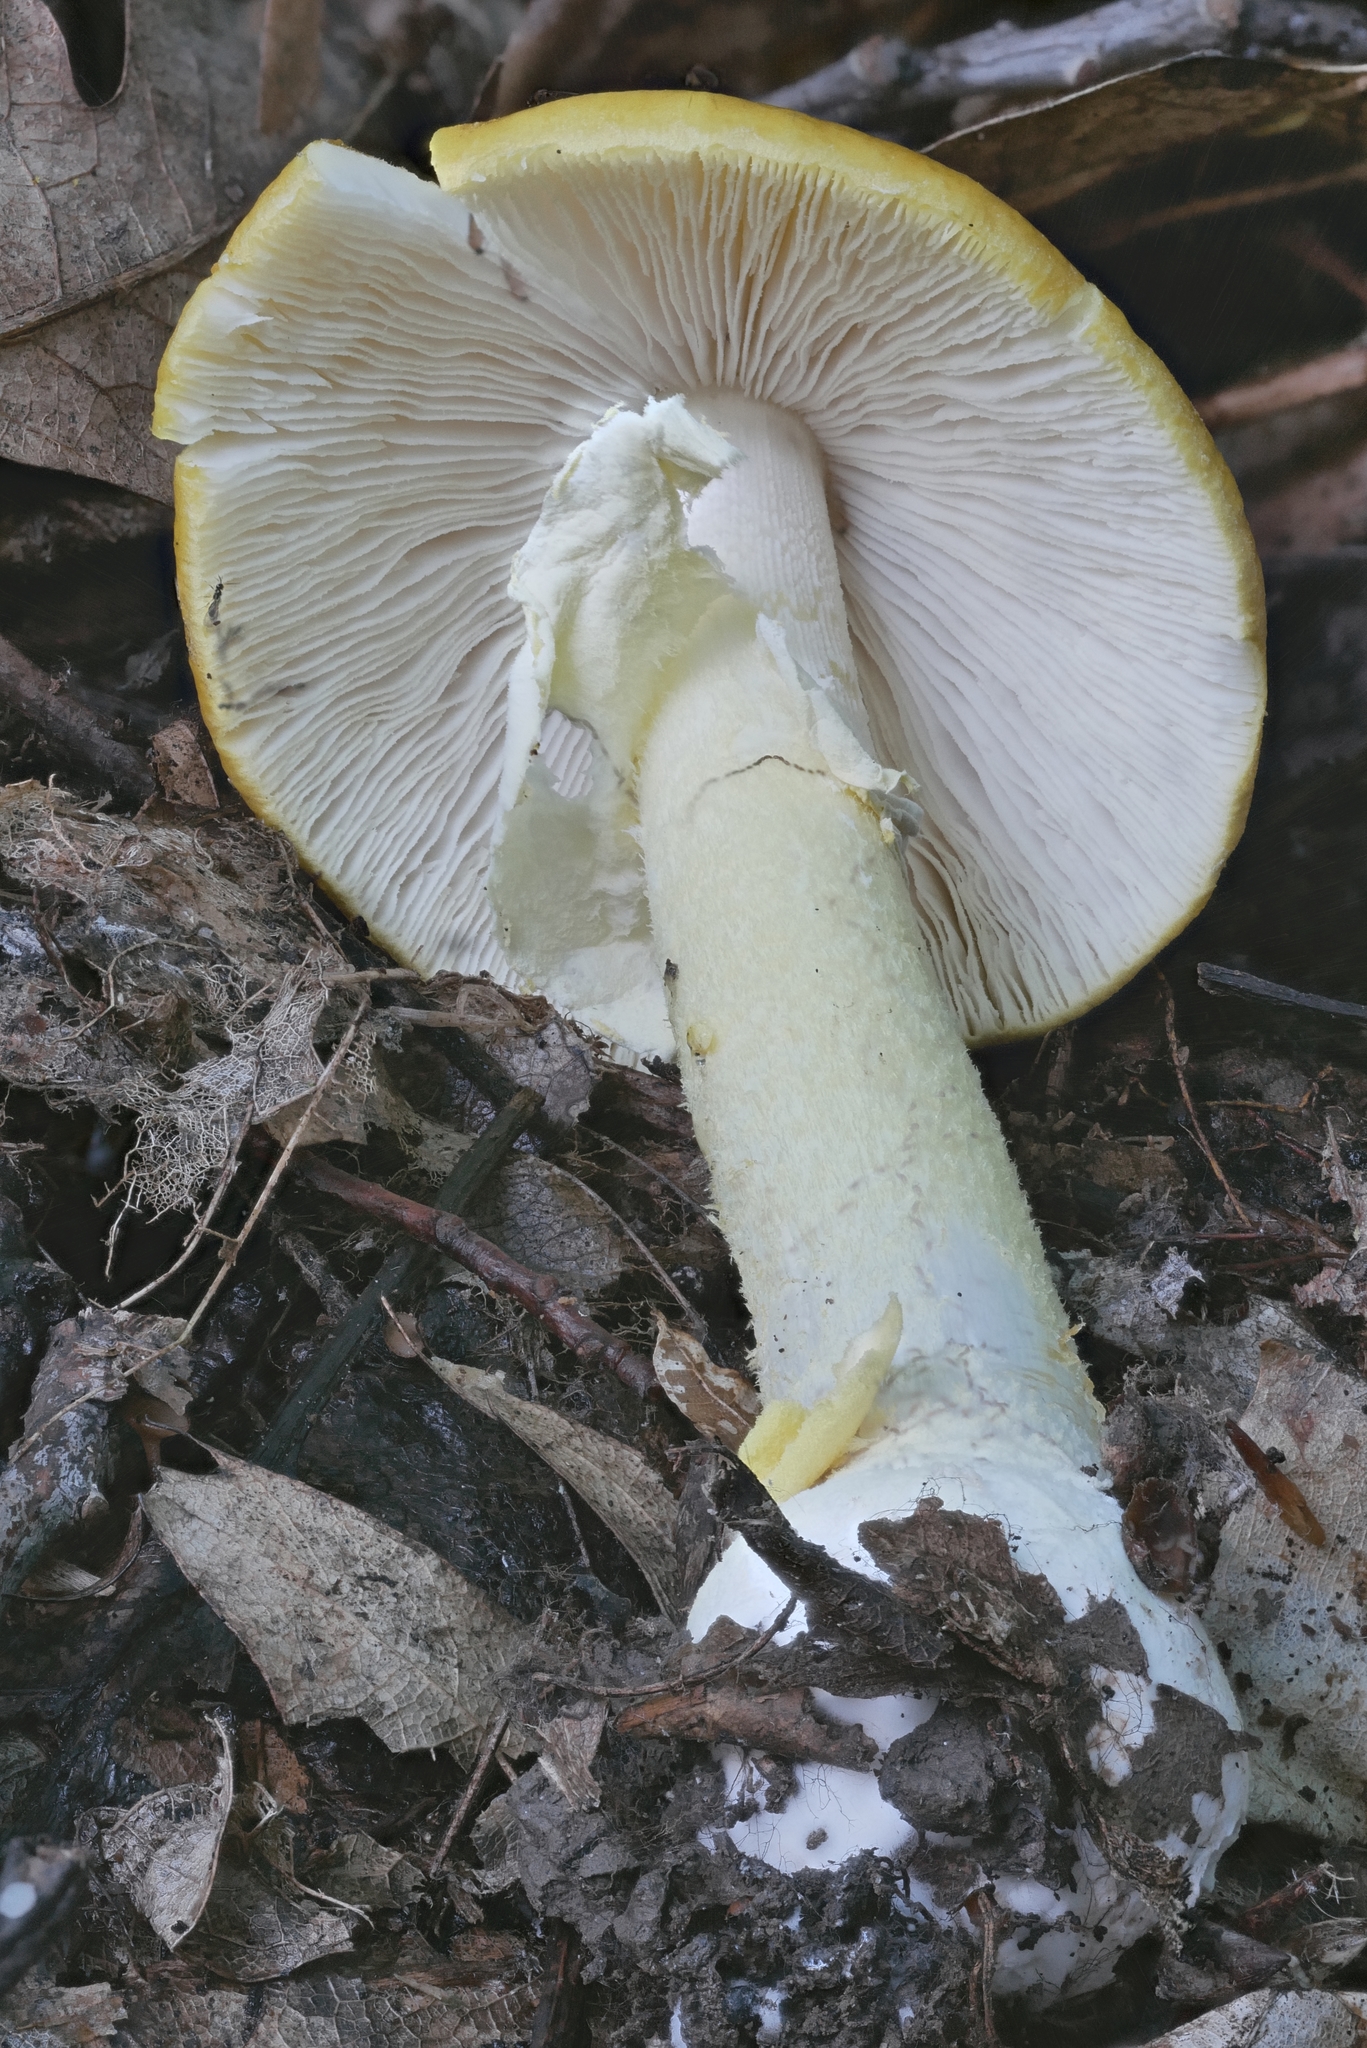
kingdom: Fungi
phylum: Basidiomycota
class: Agaricomycetes
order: Agaricales
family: Amanitaceae
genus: Amanita
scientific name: Amanita flavoconia
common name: Yellow patches
